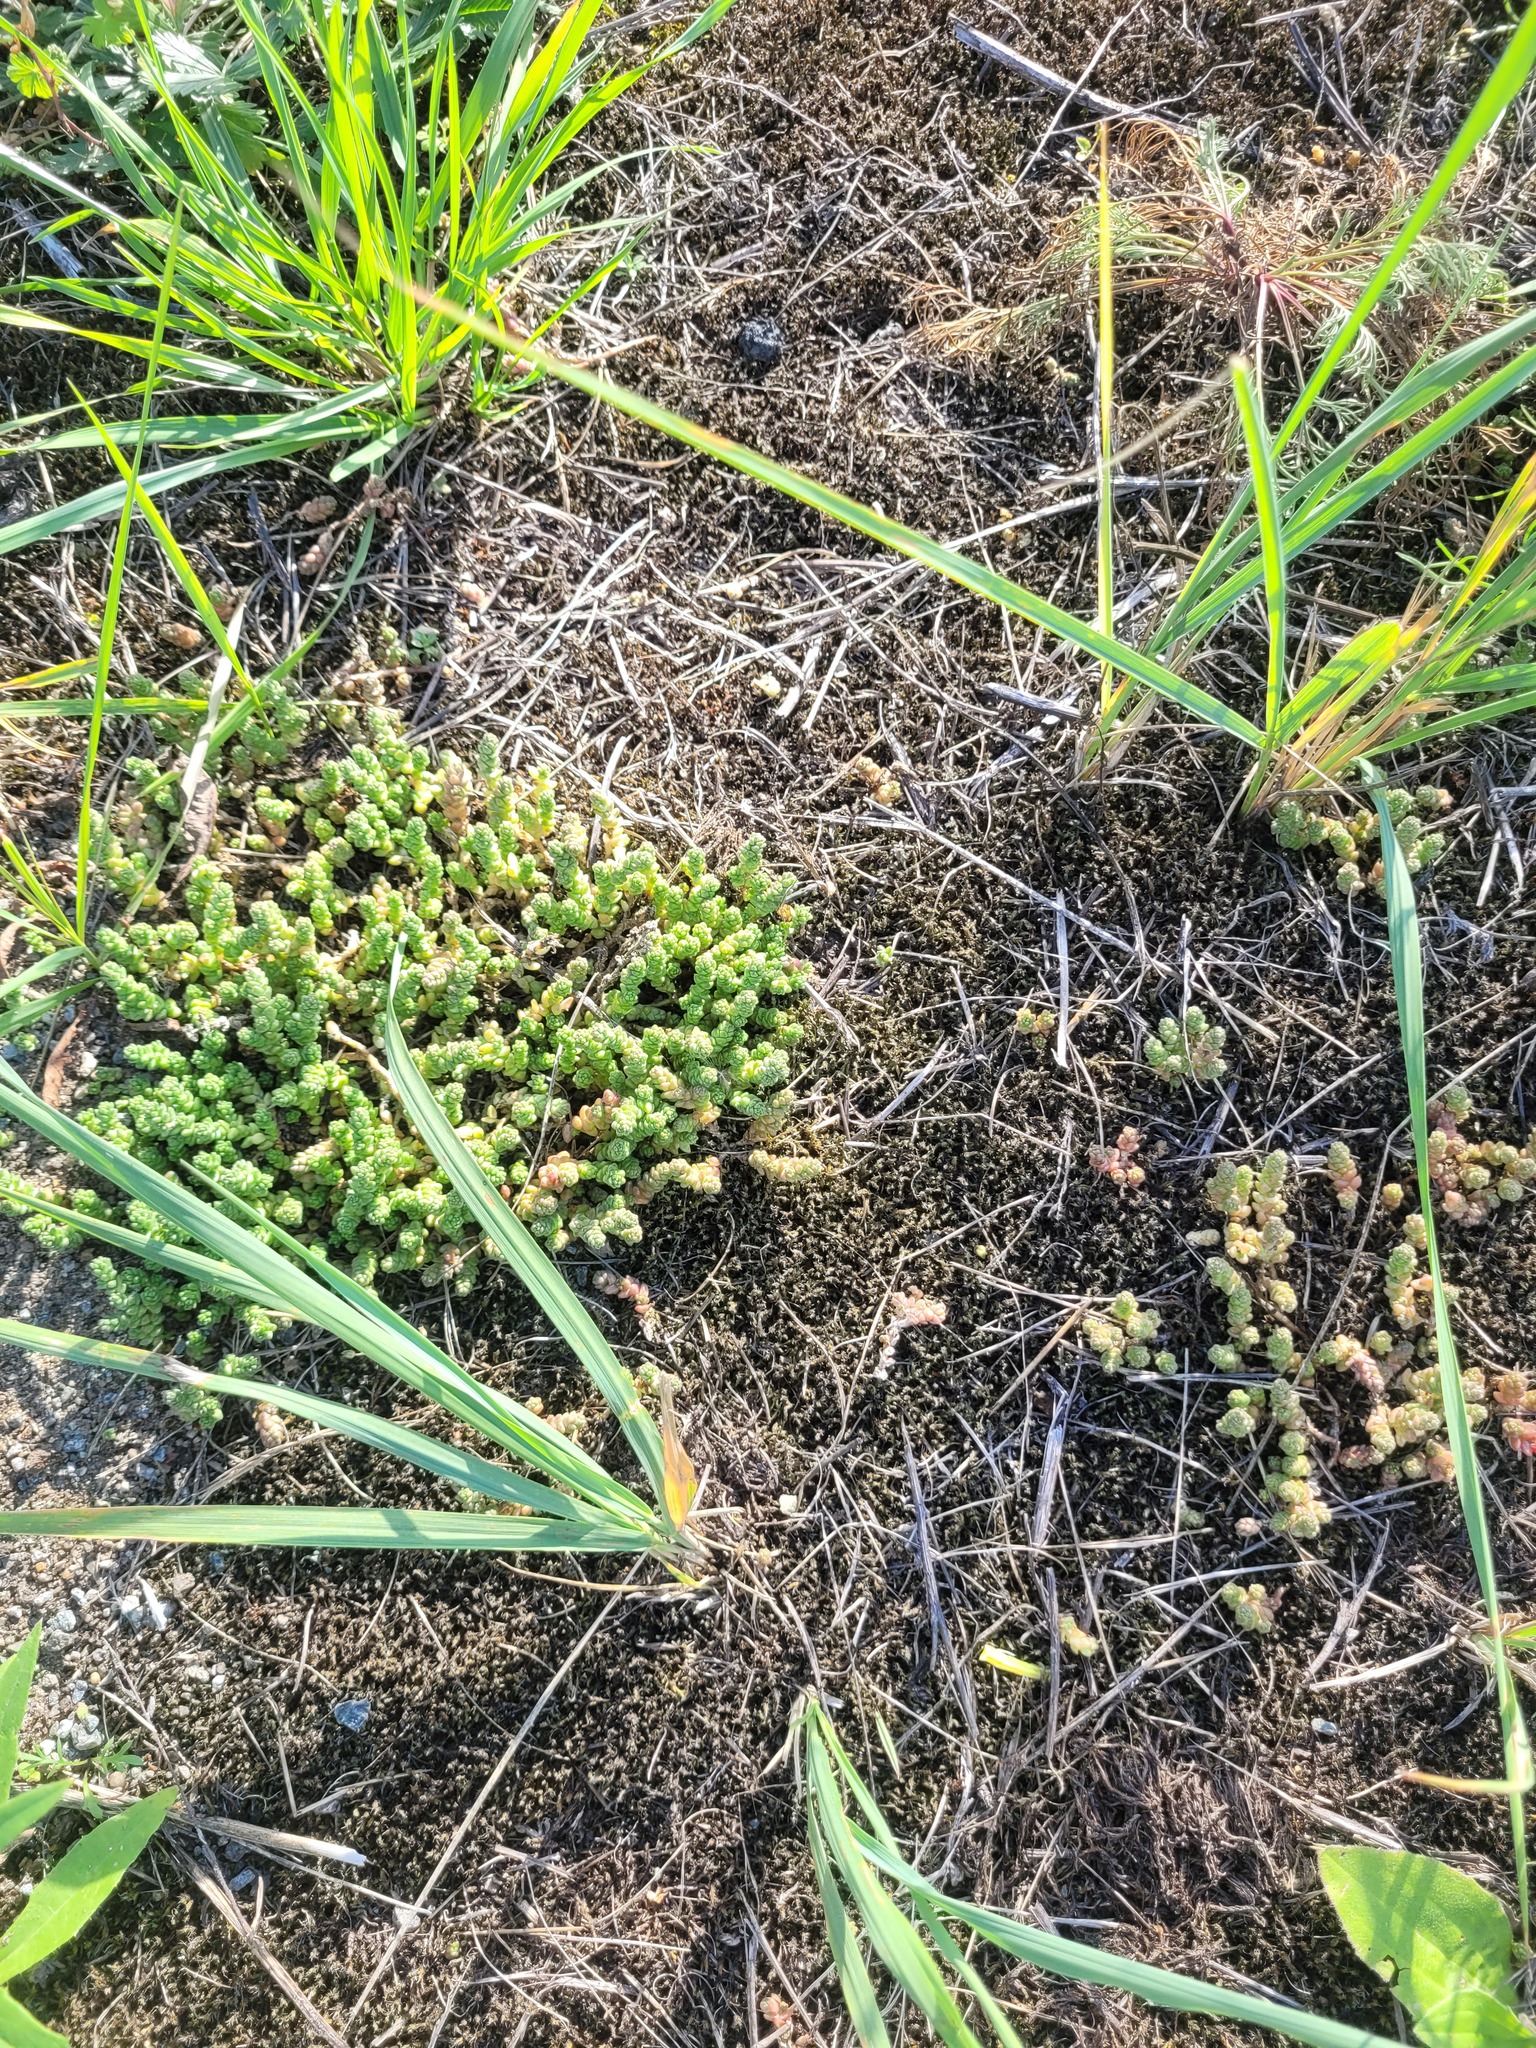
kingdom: Plantae
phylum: Tracheophyta
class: Magnoliopsida
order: Saxifragales
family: Crassulaceae
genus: Sedum
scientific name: Sedum acre
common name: Biting stonecrop
